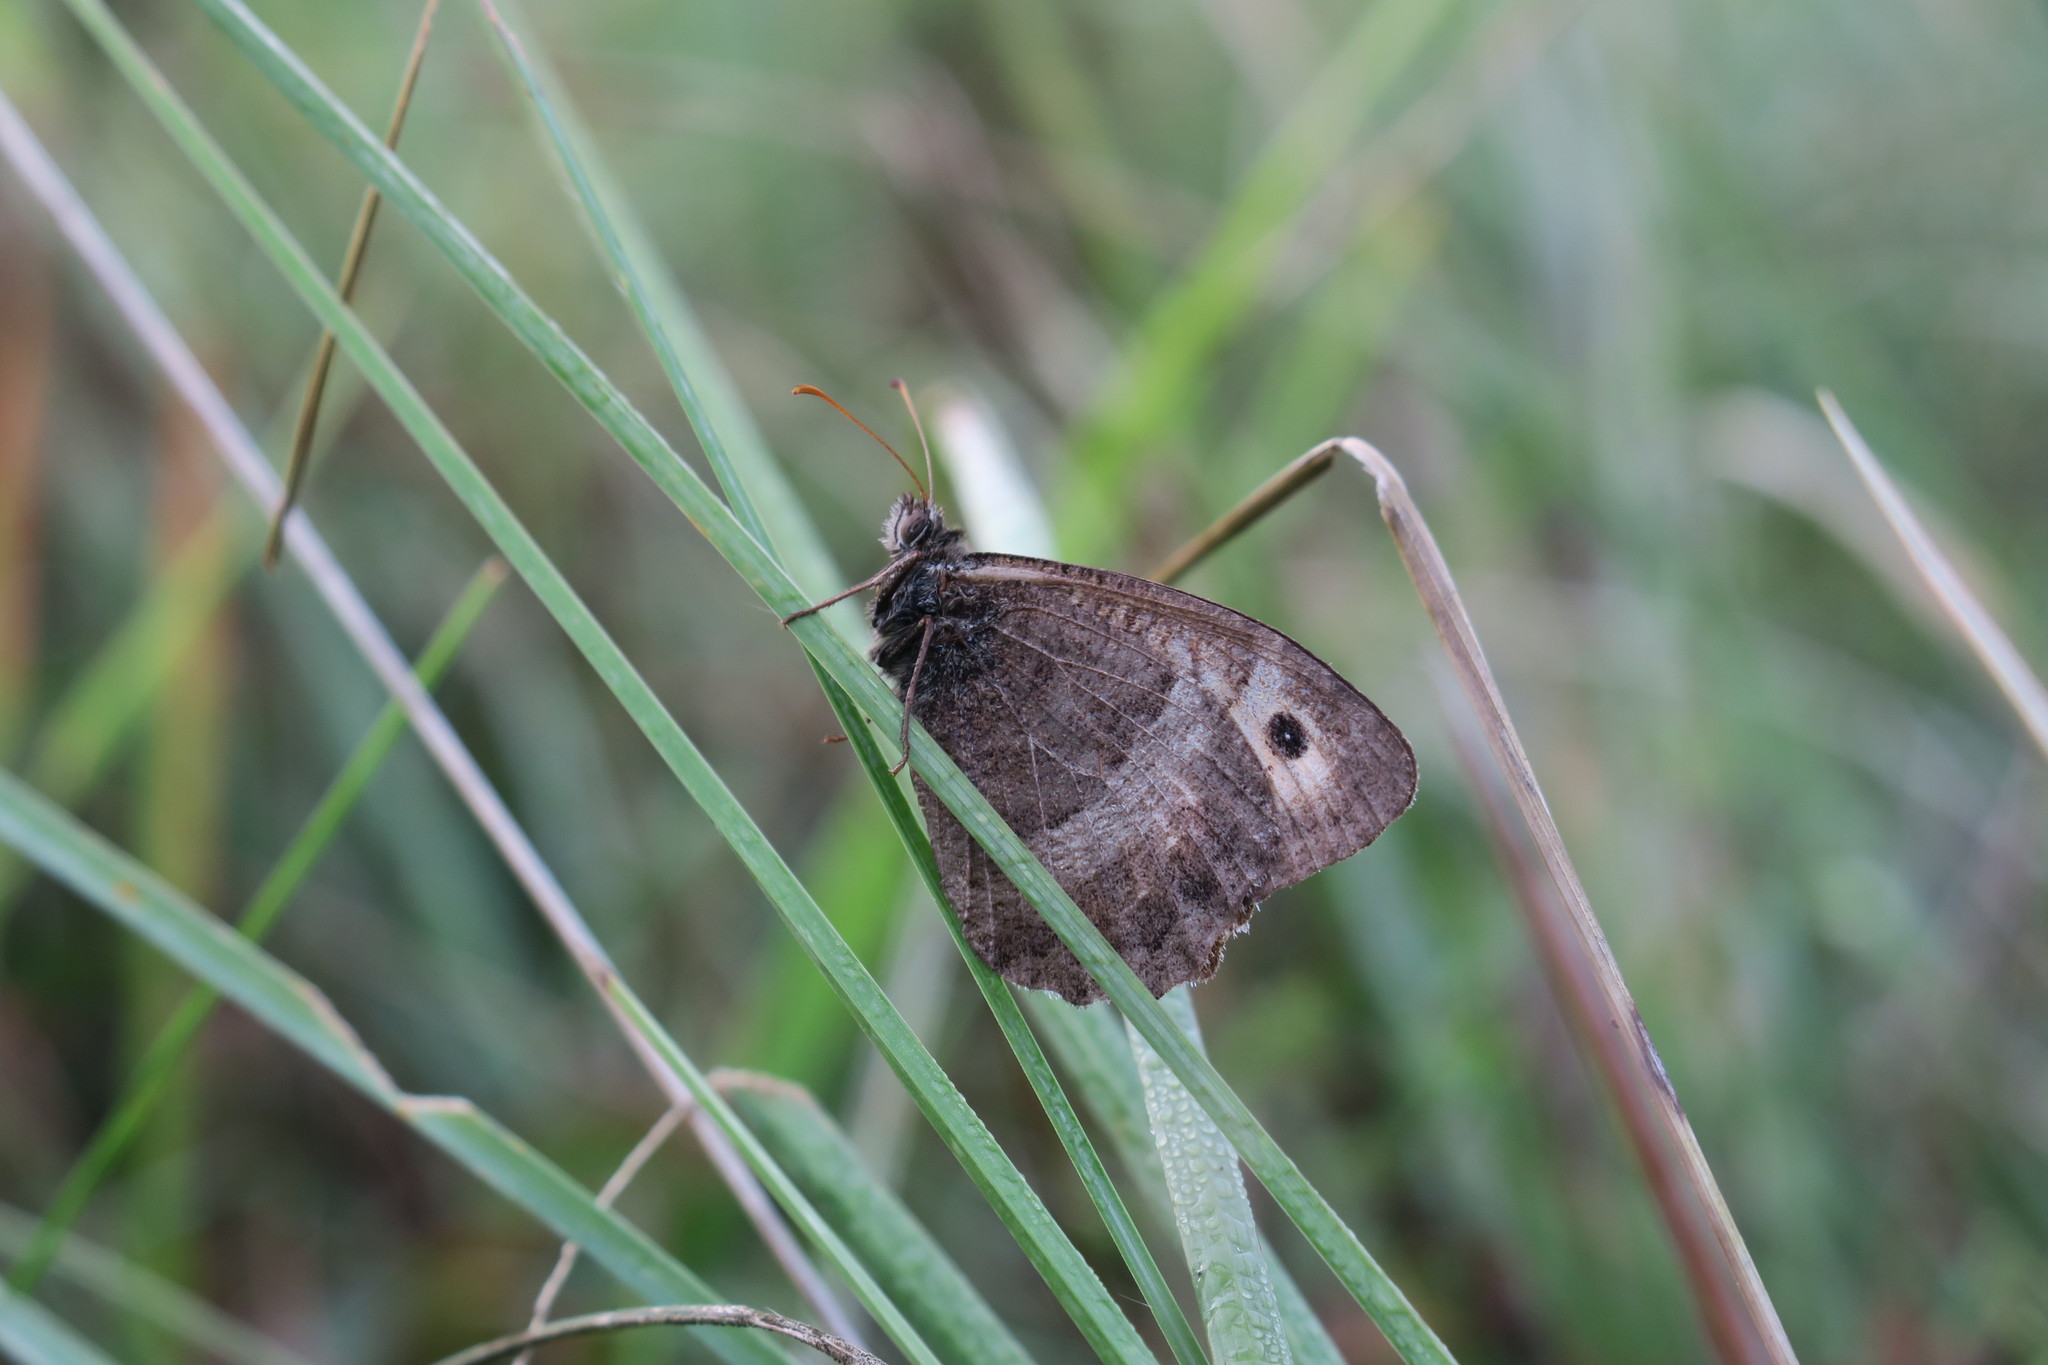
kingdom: Animalia
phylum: Arthropoda
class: Insecta
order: Lepidoptera
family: Nymphalidae
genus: Arethusana
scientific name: Arethusana arethusa
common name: False grayling
